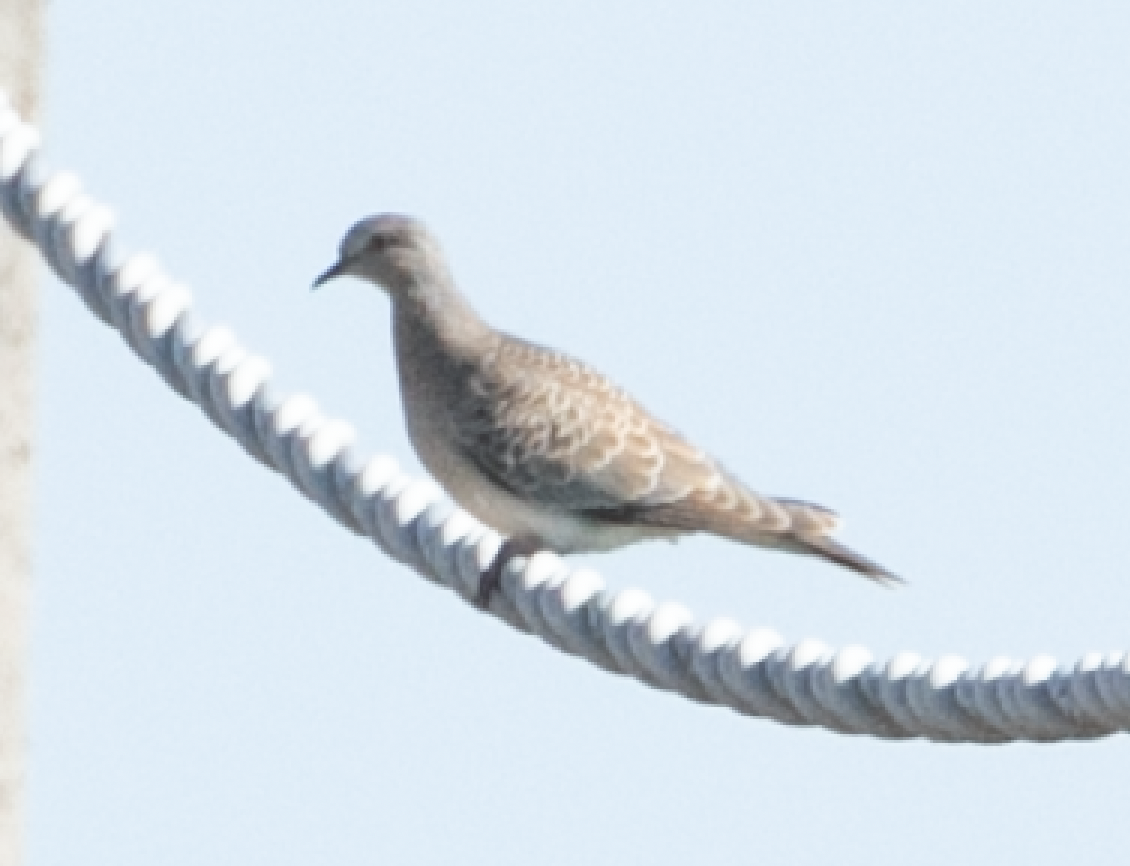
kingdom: Animalia
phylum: Chordata
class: Aves
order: Columbiformes
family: Columbidae
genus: Streptopelia
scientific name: Streptopelia turtur
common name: European turtle dove
